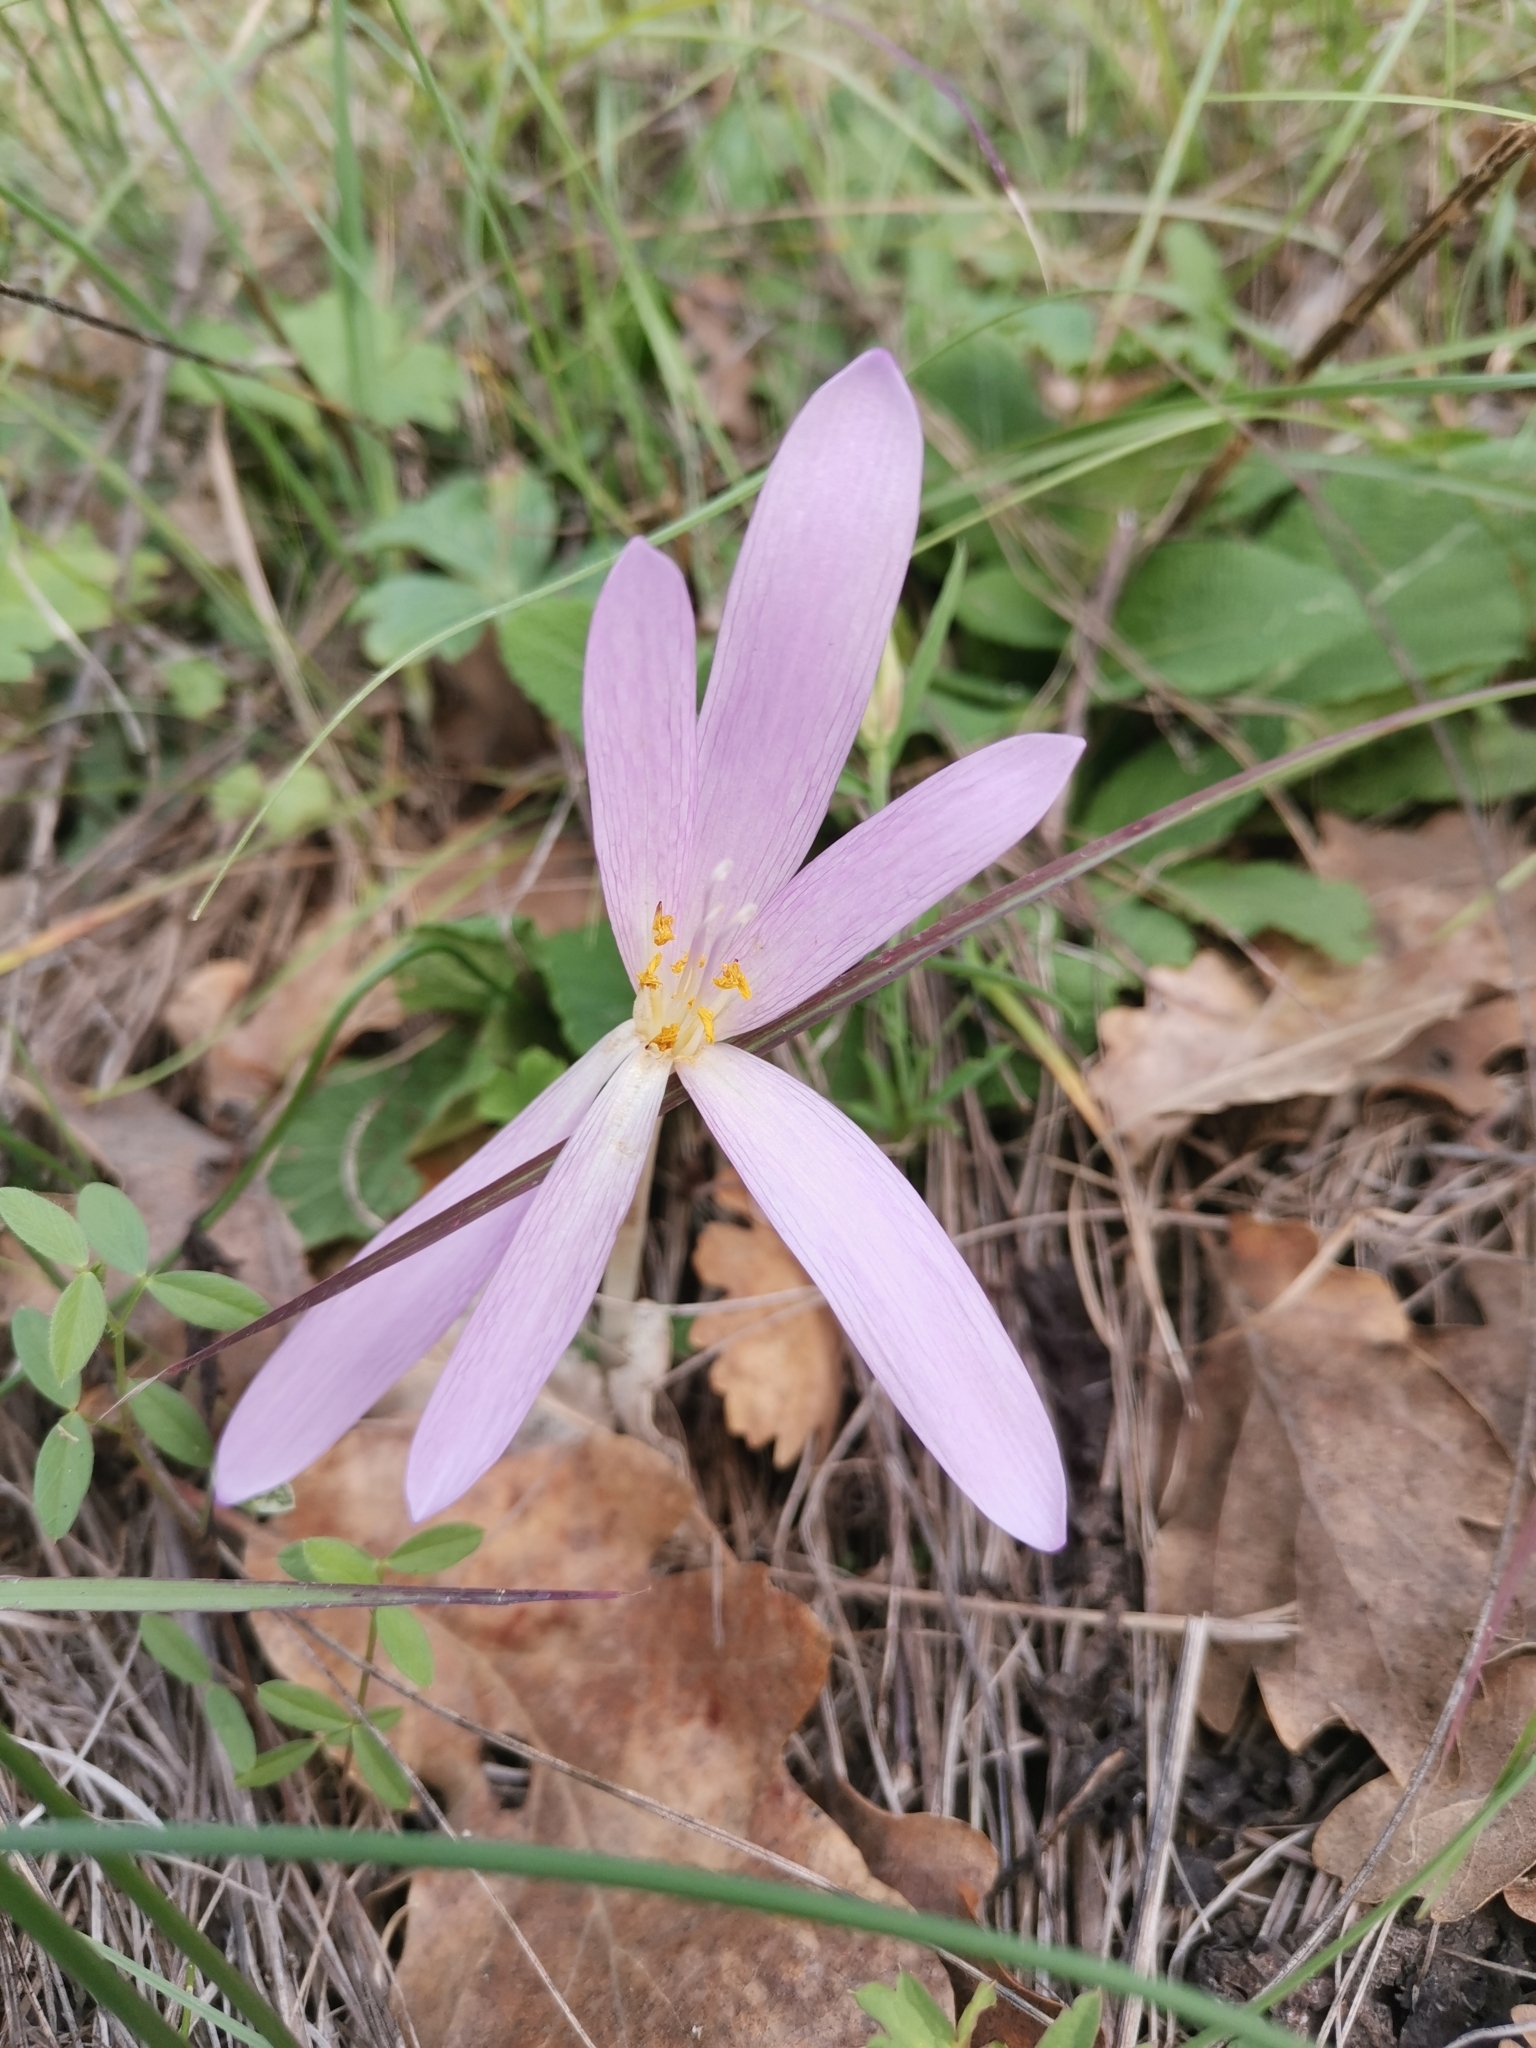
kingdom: Plantae
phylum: Tracheophyta
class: Liliopsida
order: Liliales
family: Colchicaceae
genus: Colchicum
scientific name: Colchicum haynaldii
